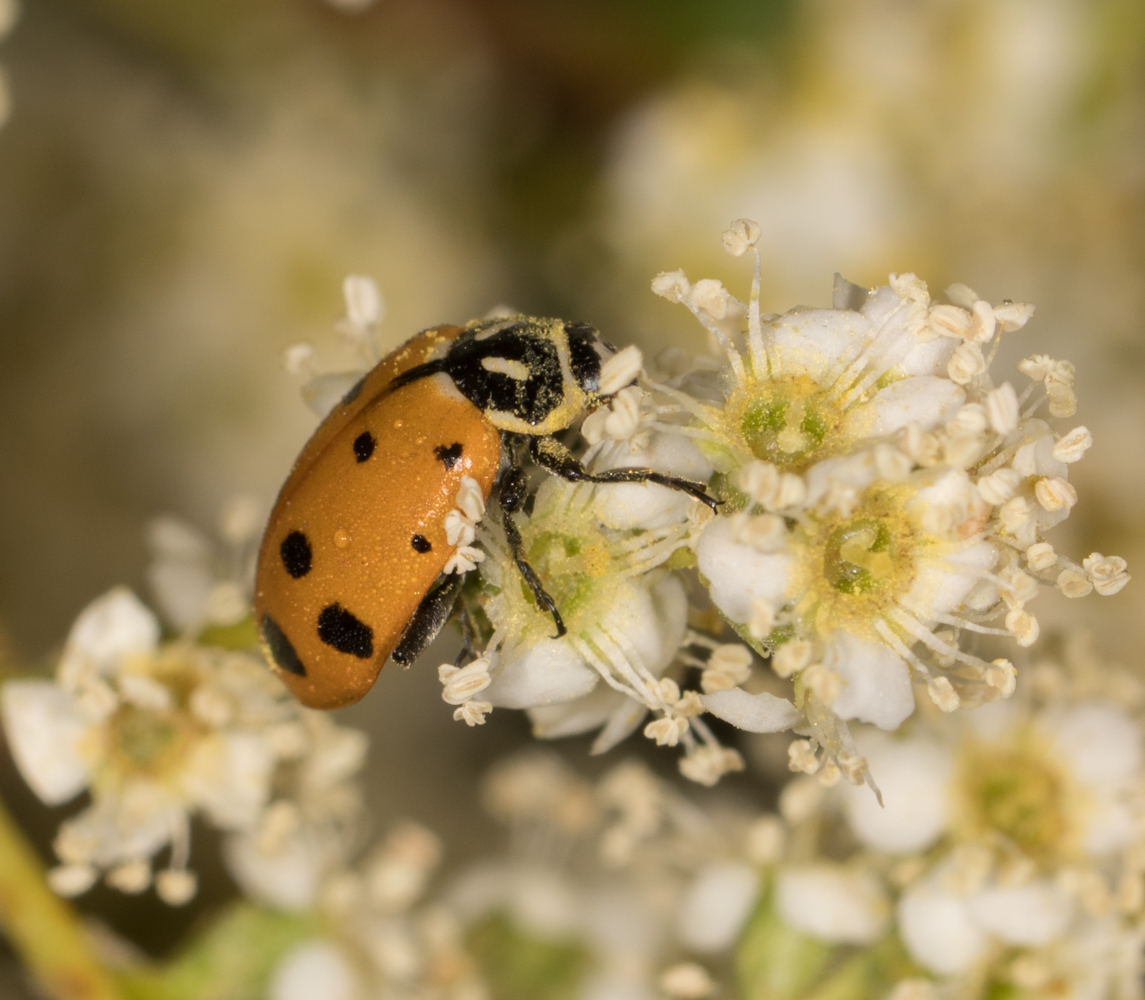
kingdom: Animalia
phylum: Arthropoda
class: Insecta
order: Coleoptera
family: Coccinellidae
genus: Hippodamia
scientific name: Hippodamia convergens
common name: Convergent lady beetle
